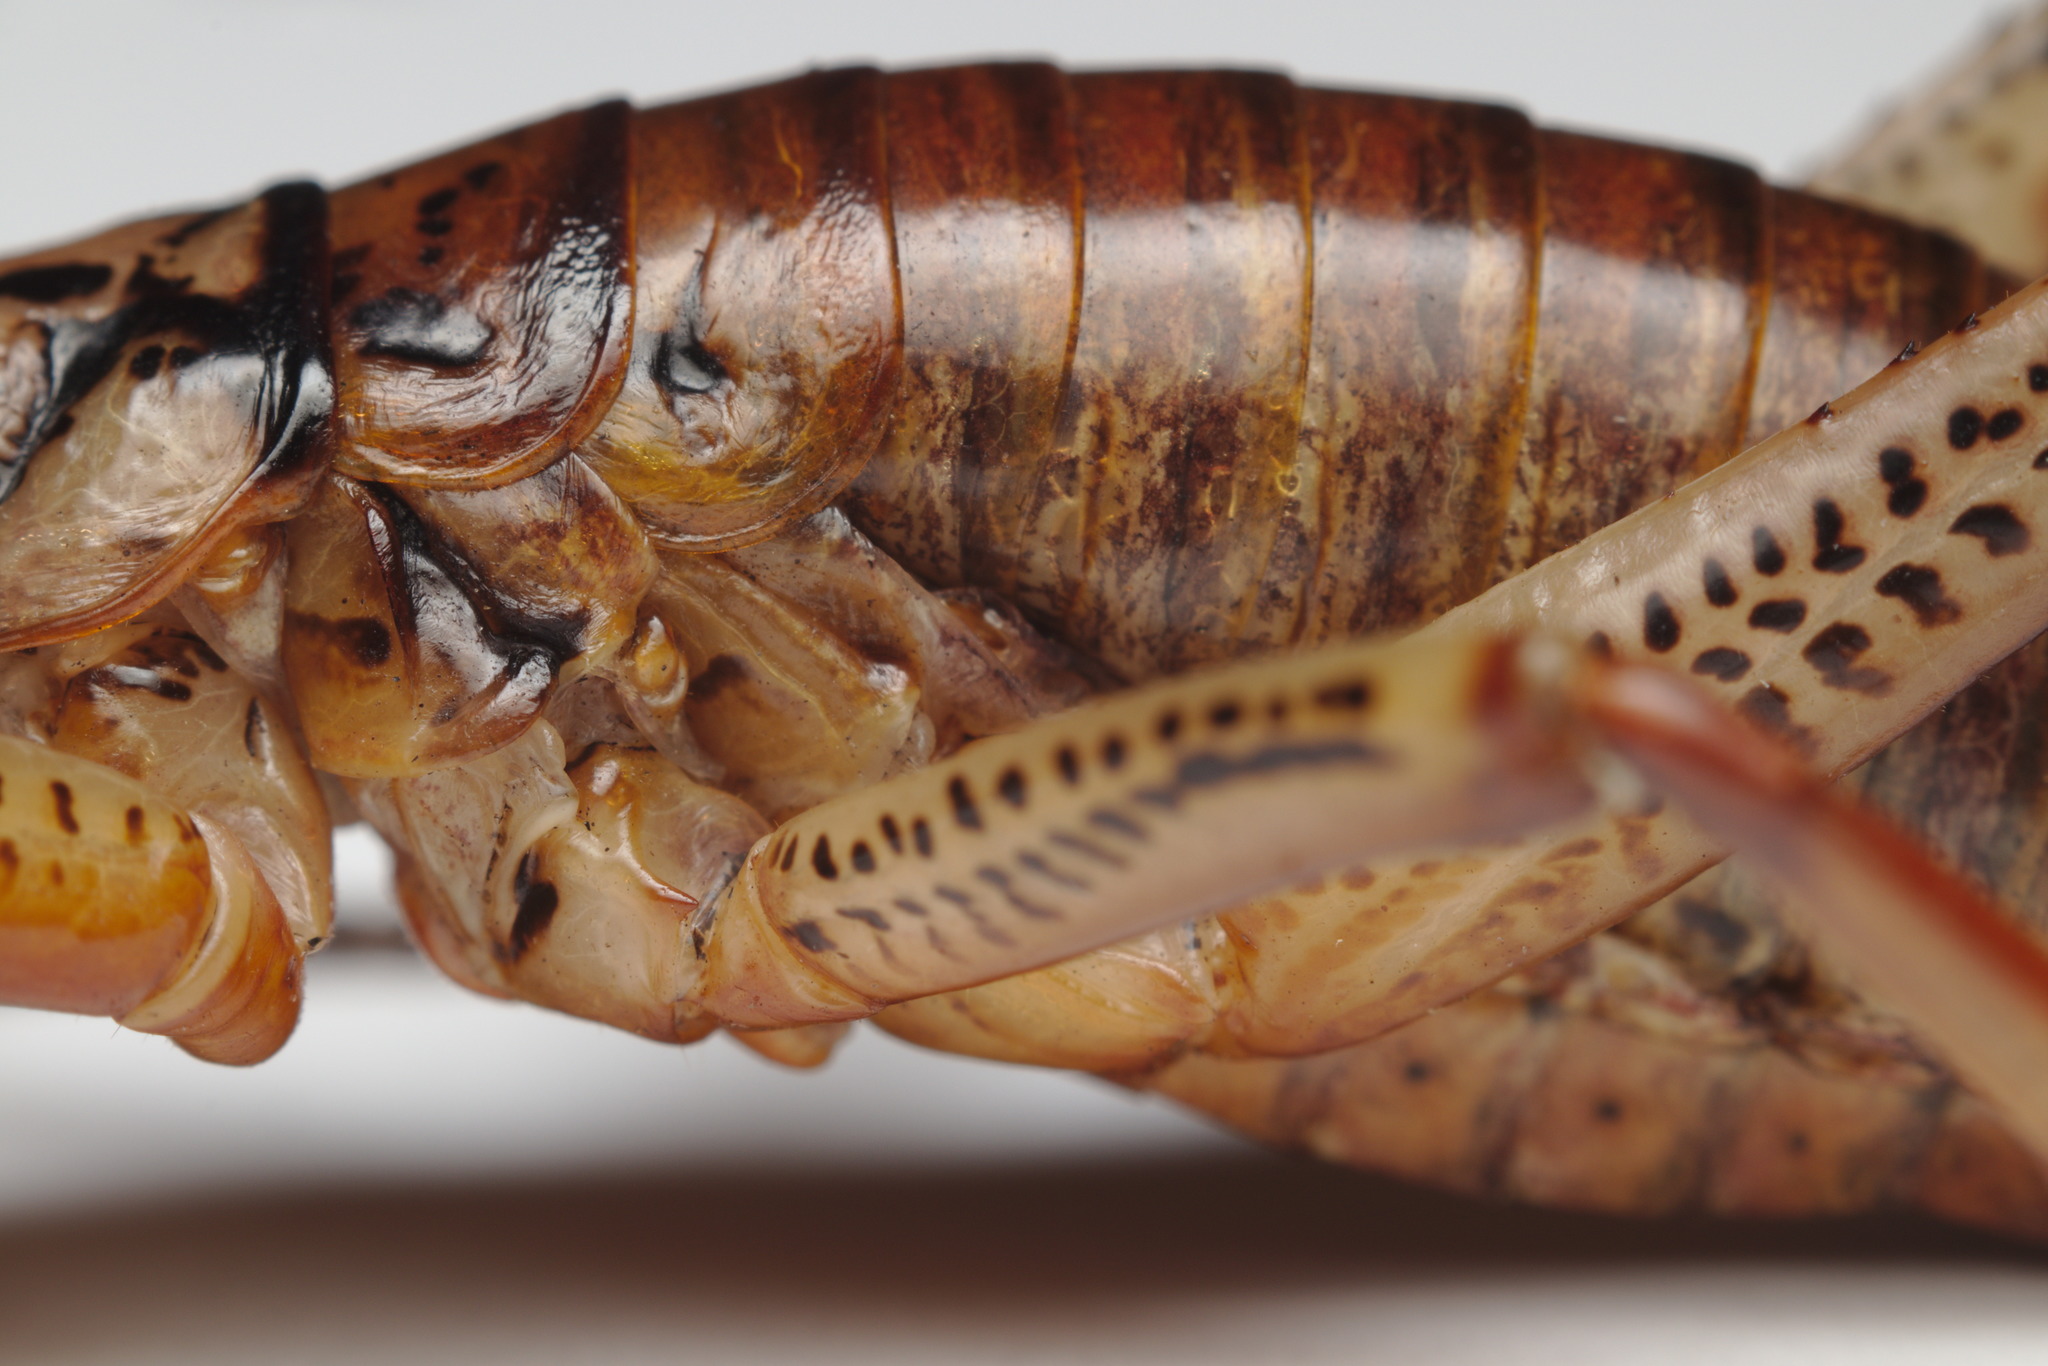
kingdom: Animalia
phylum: Arthropoda
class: Insecta
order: Orthoptera
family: Anostostomatidae
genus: Hemideina
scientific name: Hemideina thoracica
